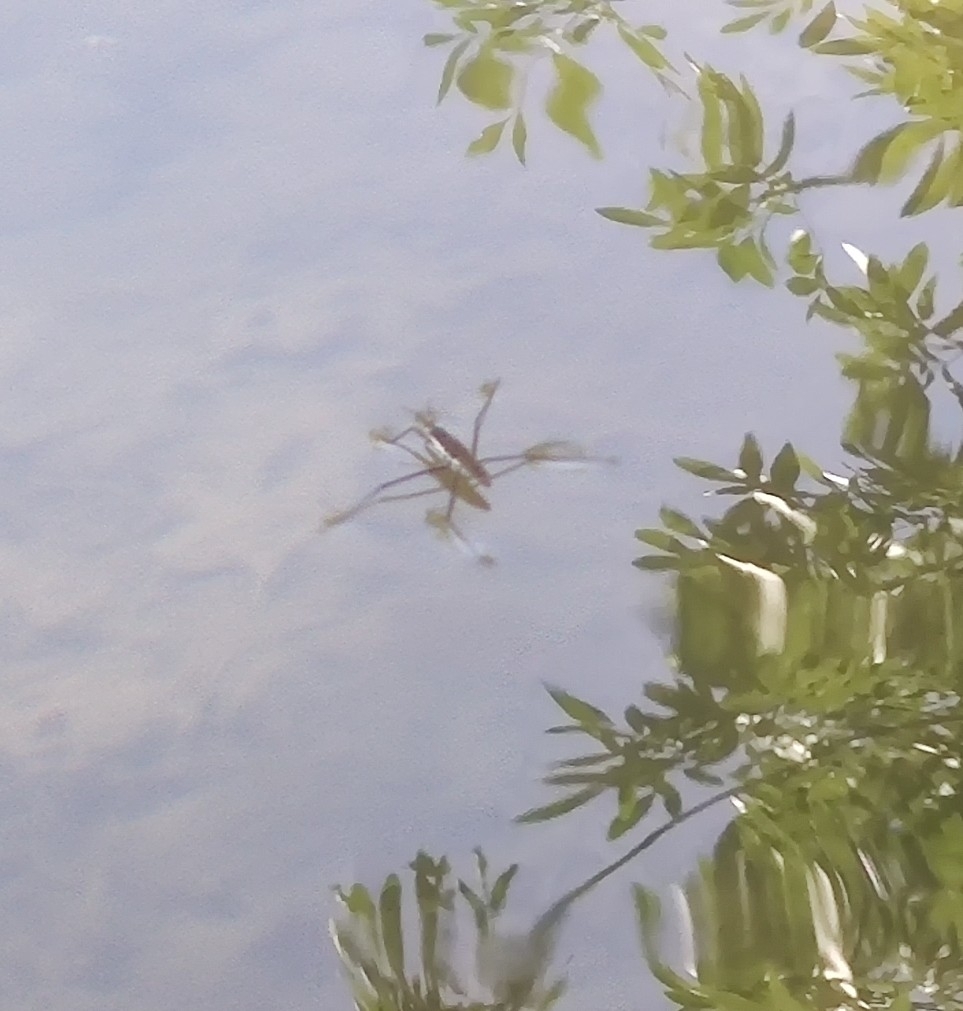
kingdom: Animalia
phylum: Arthropoda
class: Insecta
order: Hemiptera
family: Gerridae
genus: Aquarius
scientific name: Aquarius remigis
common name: Common water strider
